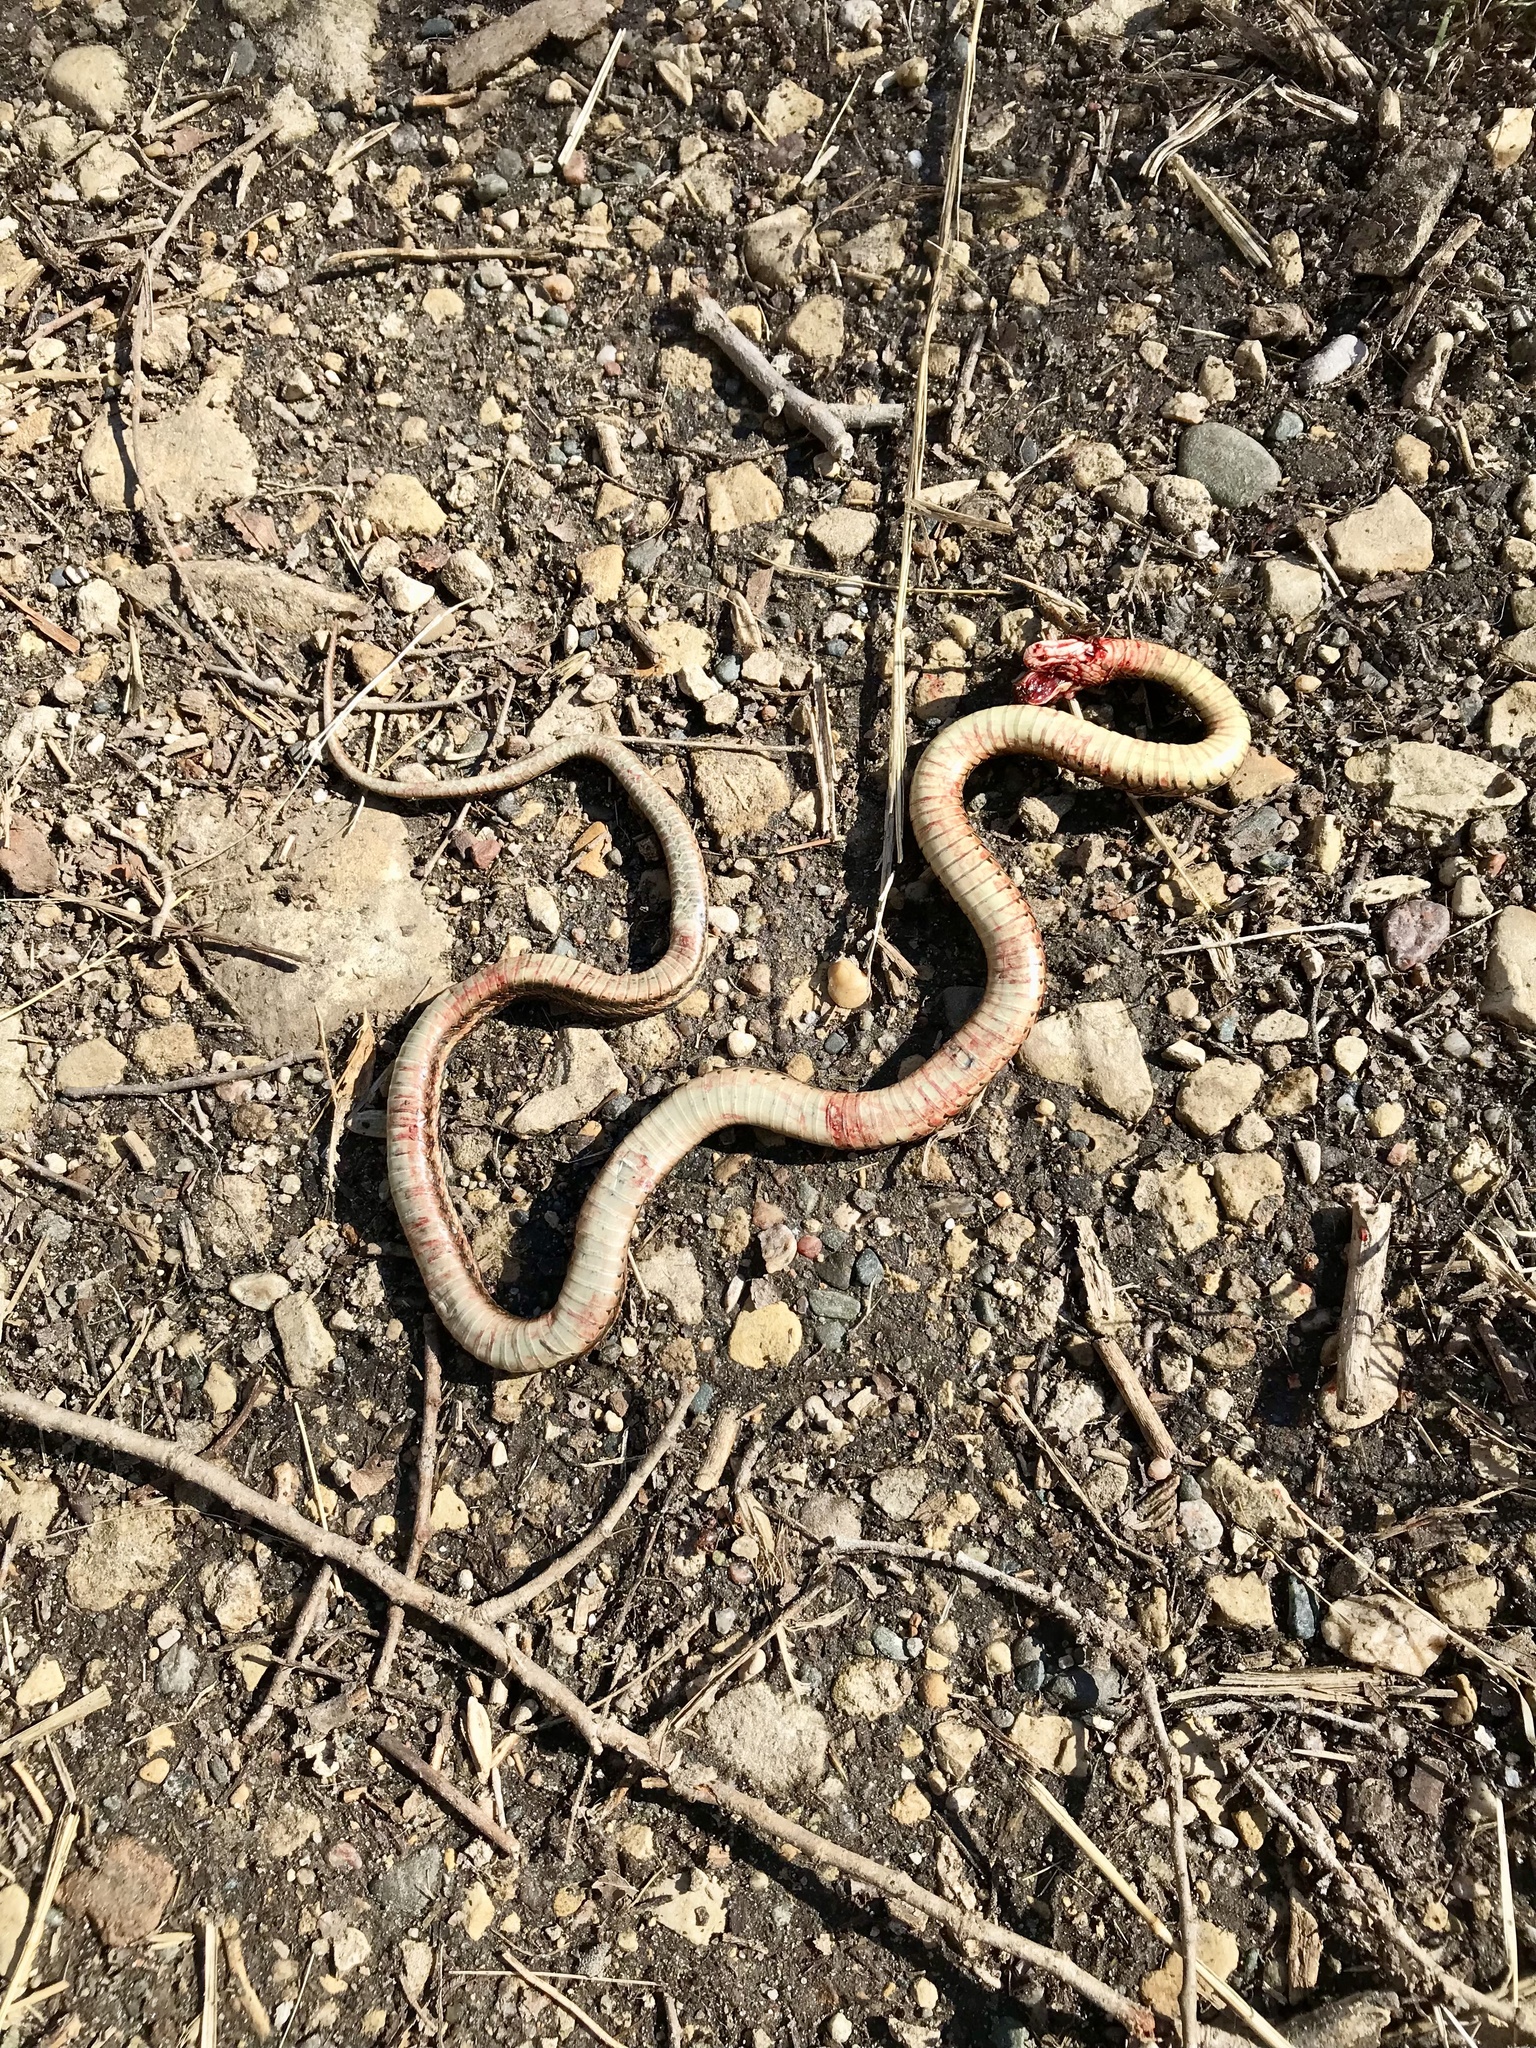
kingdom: Animalia
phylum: Chordata
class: Squamata
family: Colubridae
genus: Thamnophis
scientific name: Thamnophis sirtalis
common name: Common garter snake
